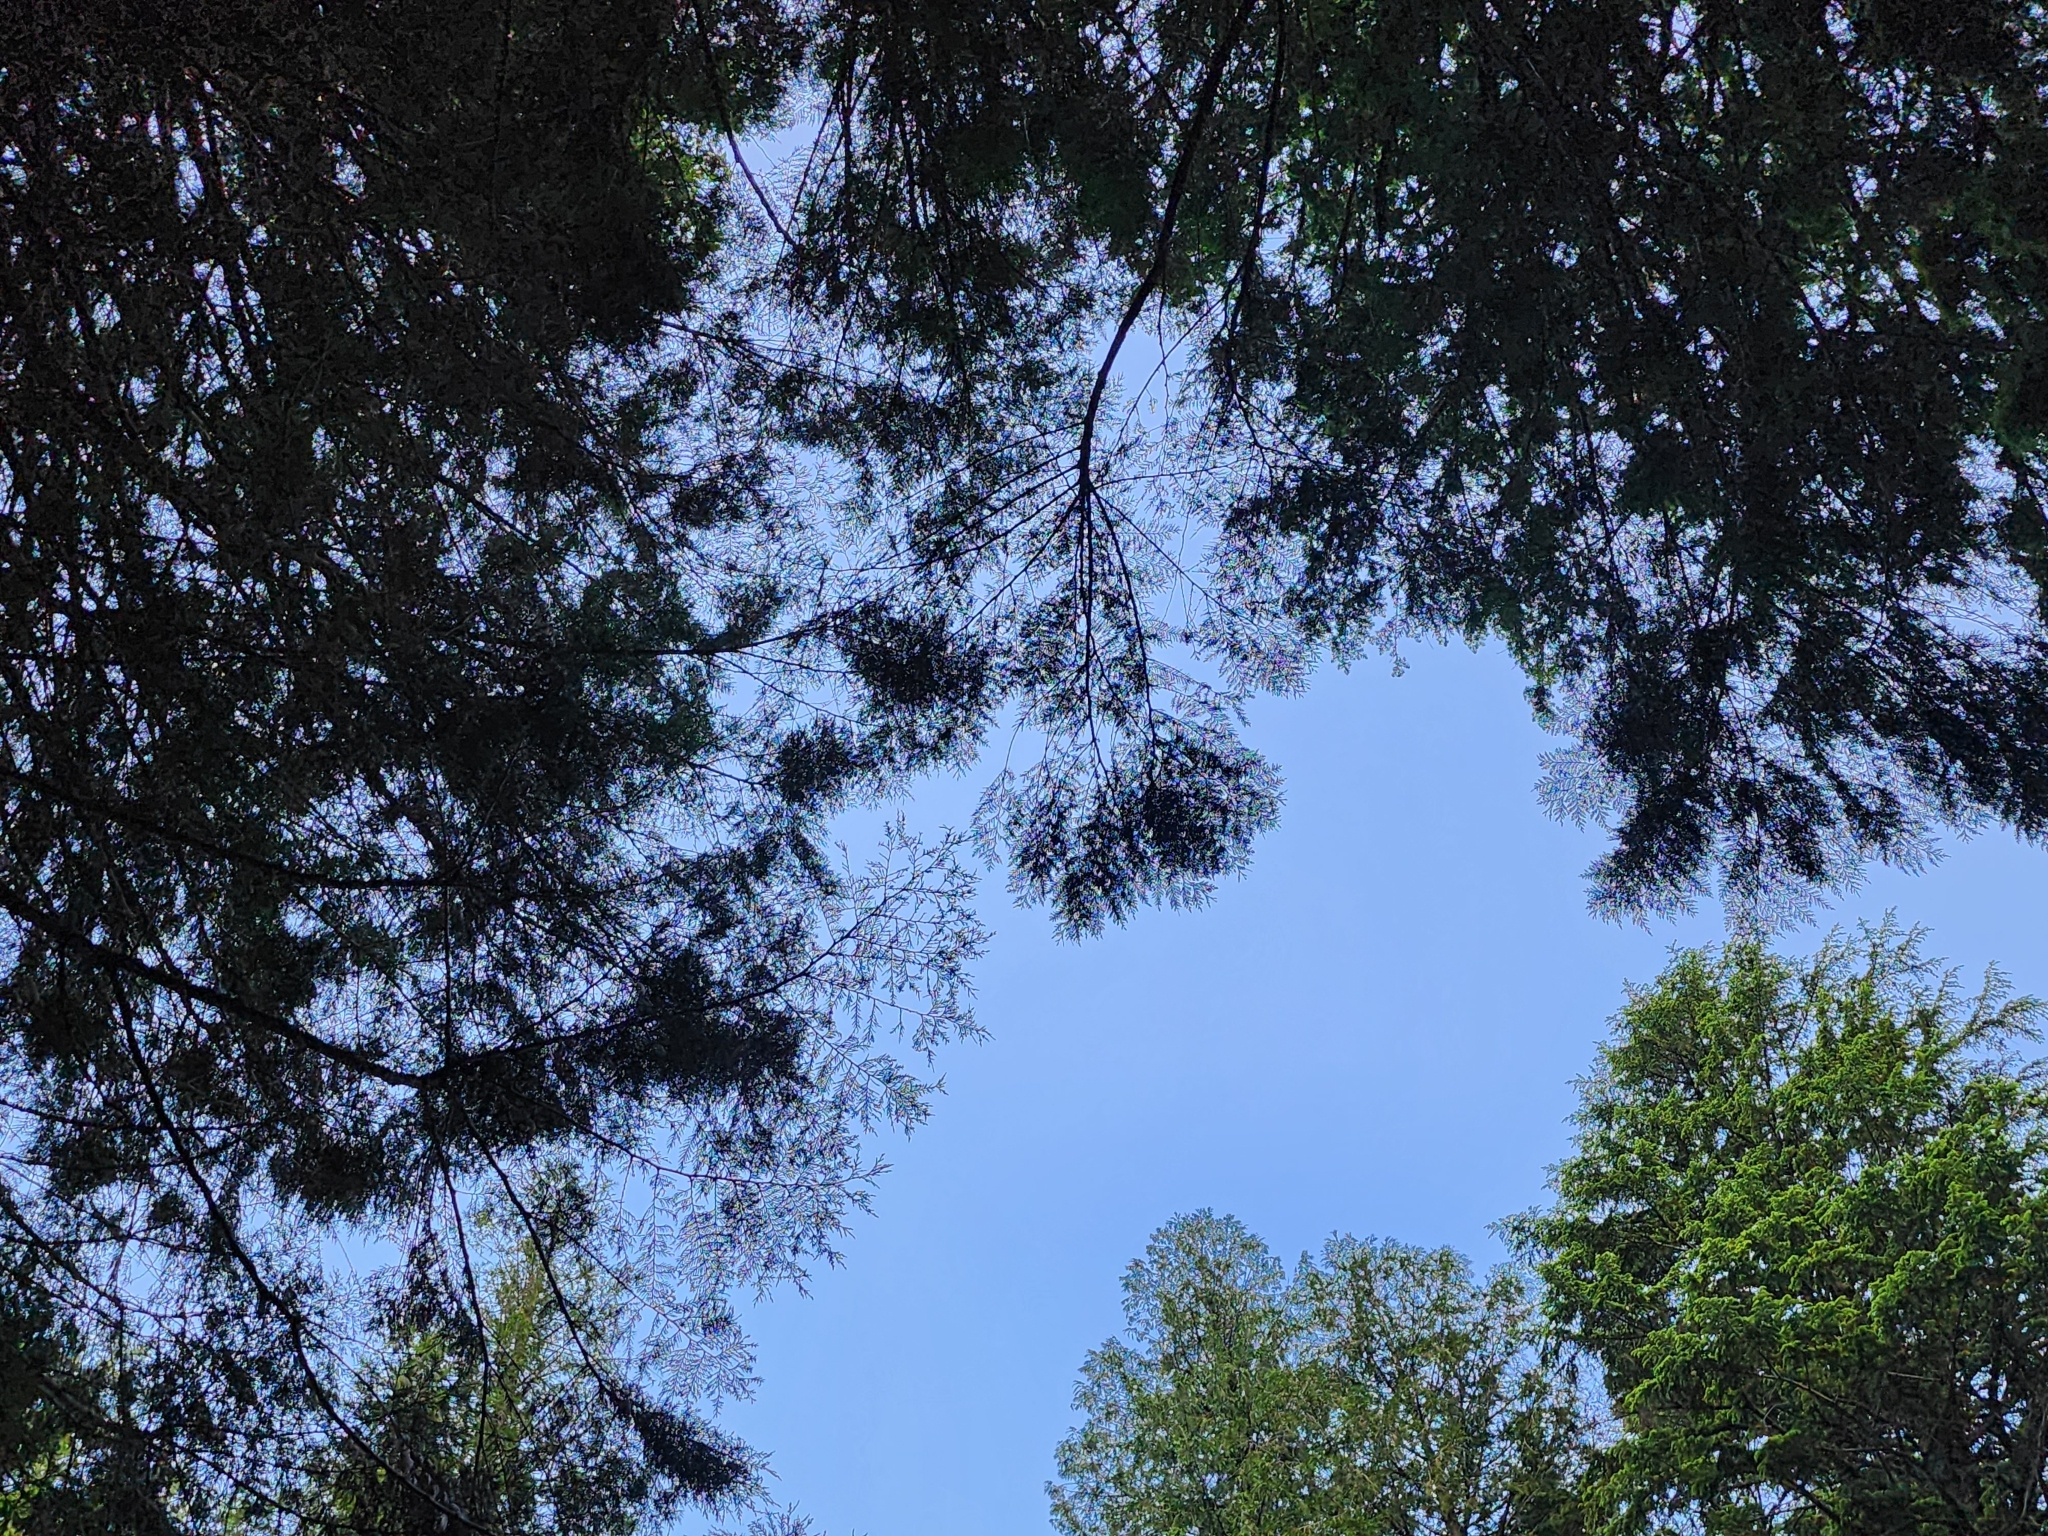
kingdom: Plantae
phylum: Tracheophyta
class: Pinopsida
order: Pinales
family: Cupressaceae
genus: Thuja
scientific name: Thuja plicata
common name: Western red-cedar
